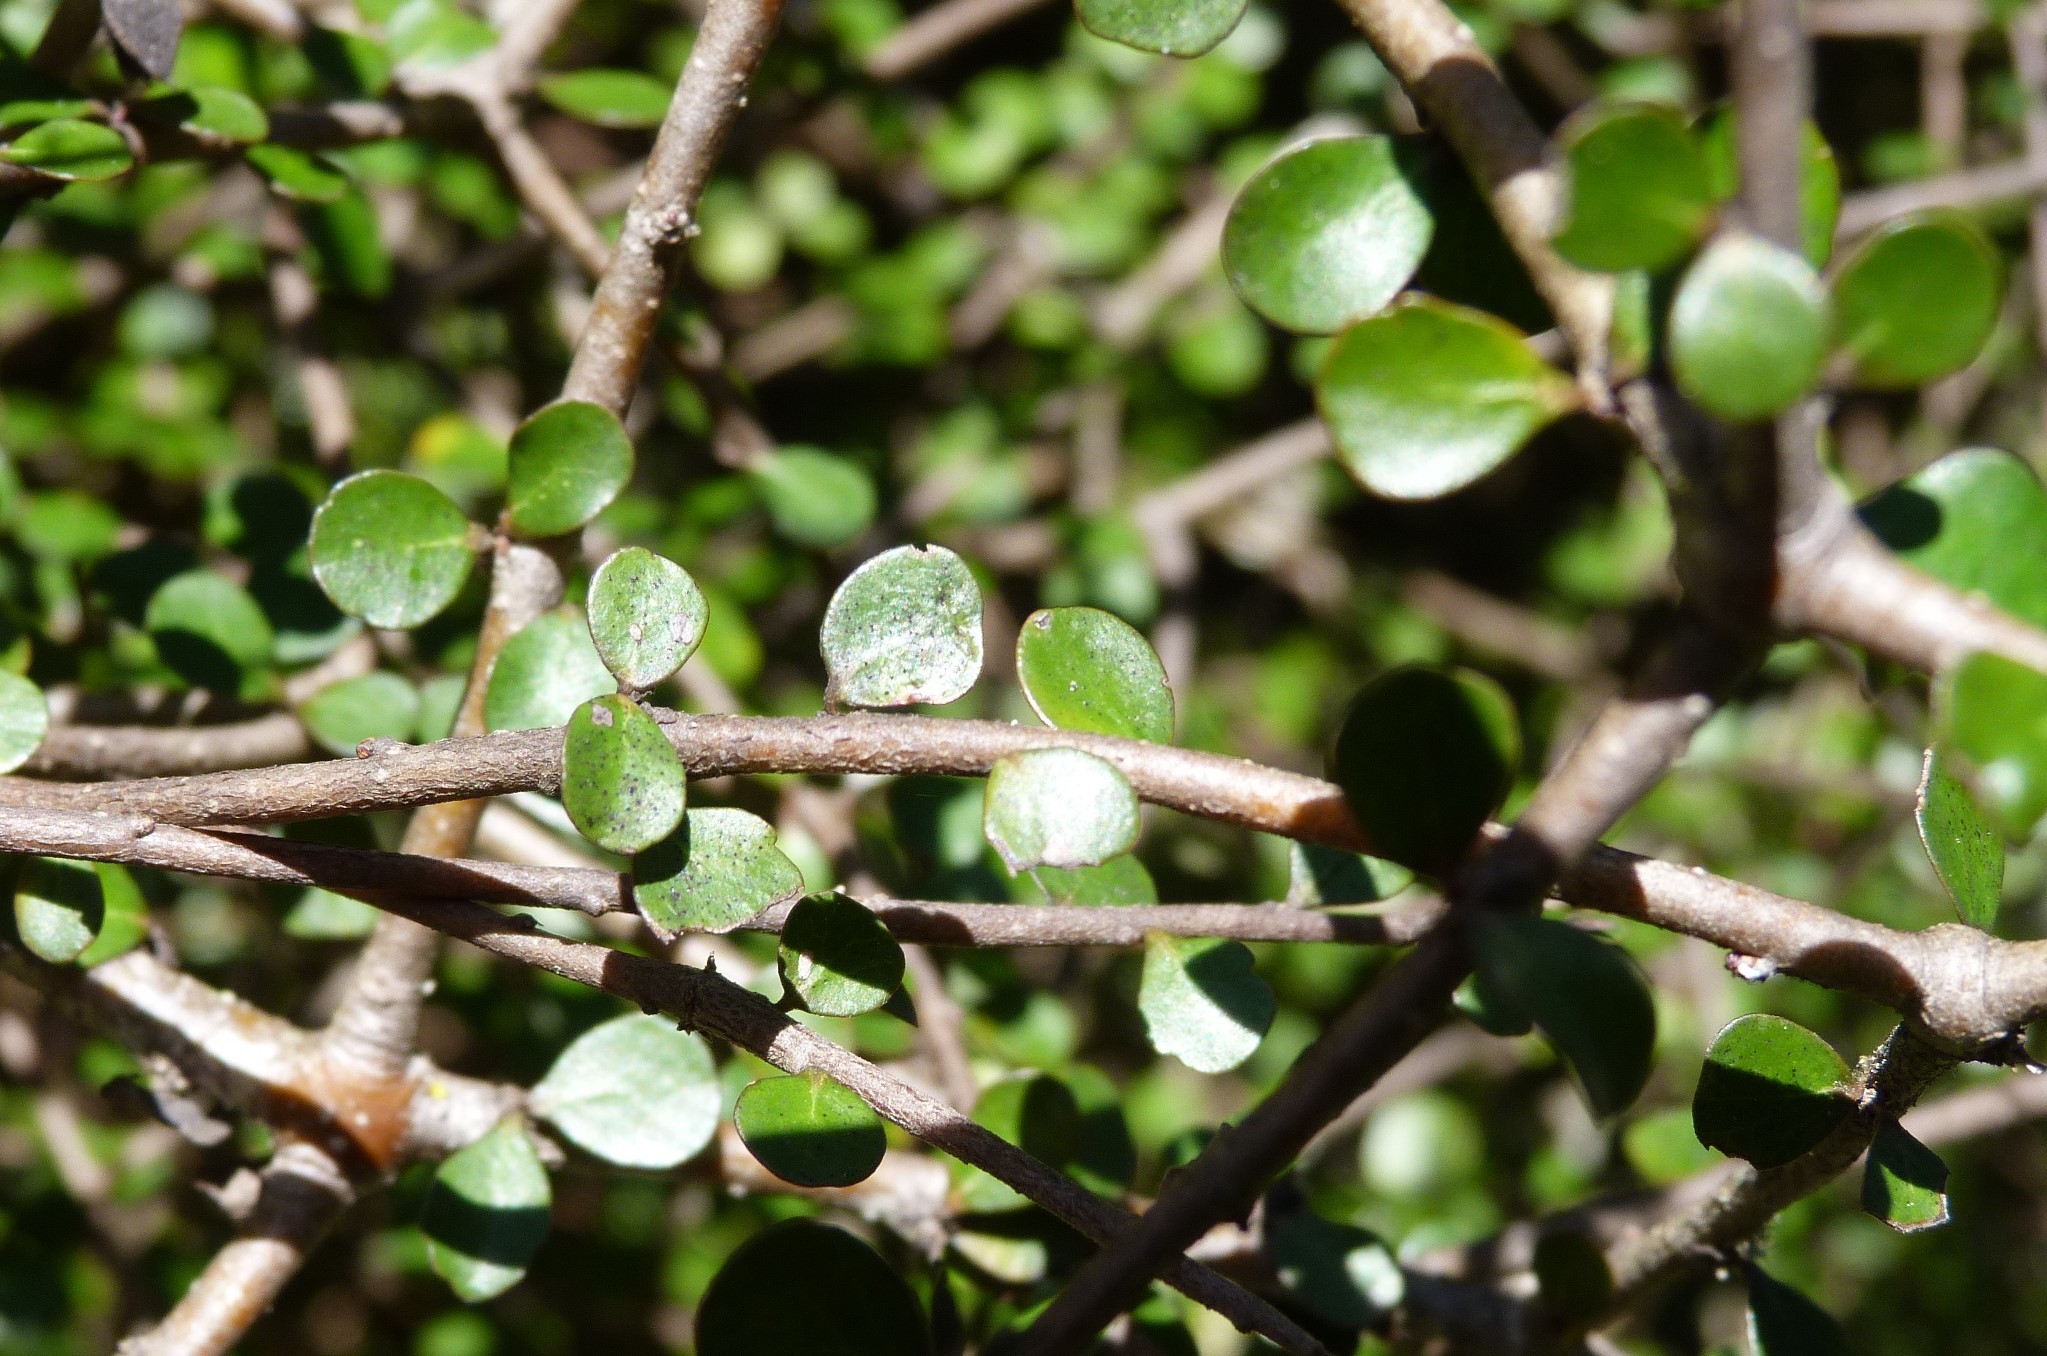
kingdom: Plantae
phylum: Tracheophyta
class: Magnoliopsida
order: Apiales
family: Pittosporaceae
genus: Pittosporum
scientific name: Pittosporum obcordatum
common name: Heart-leaved kohuhu
